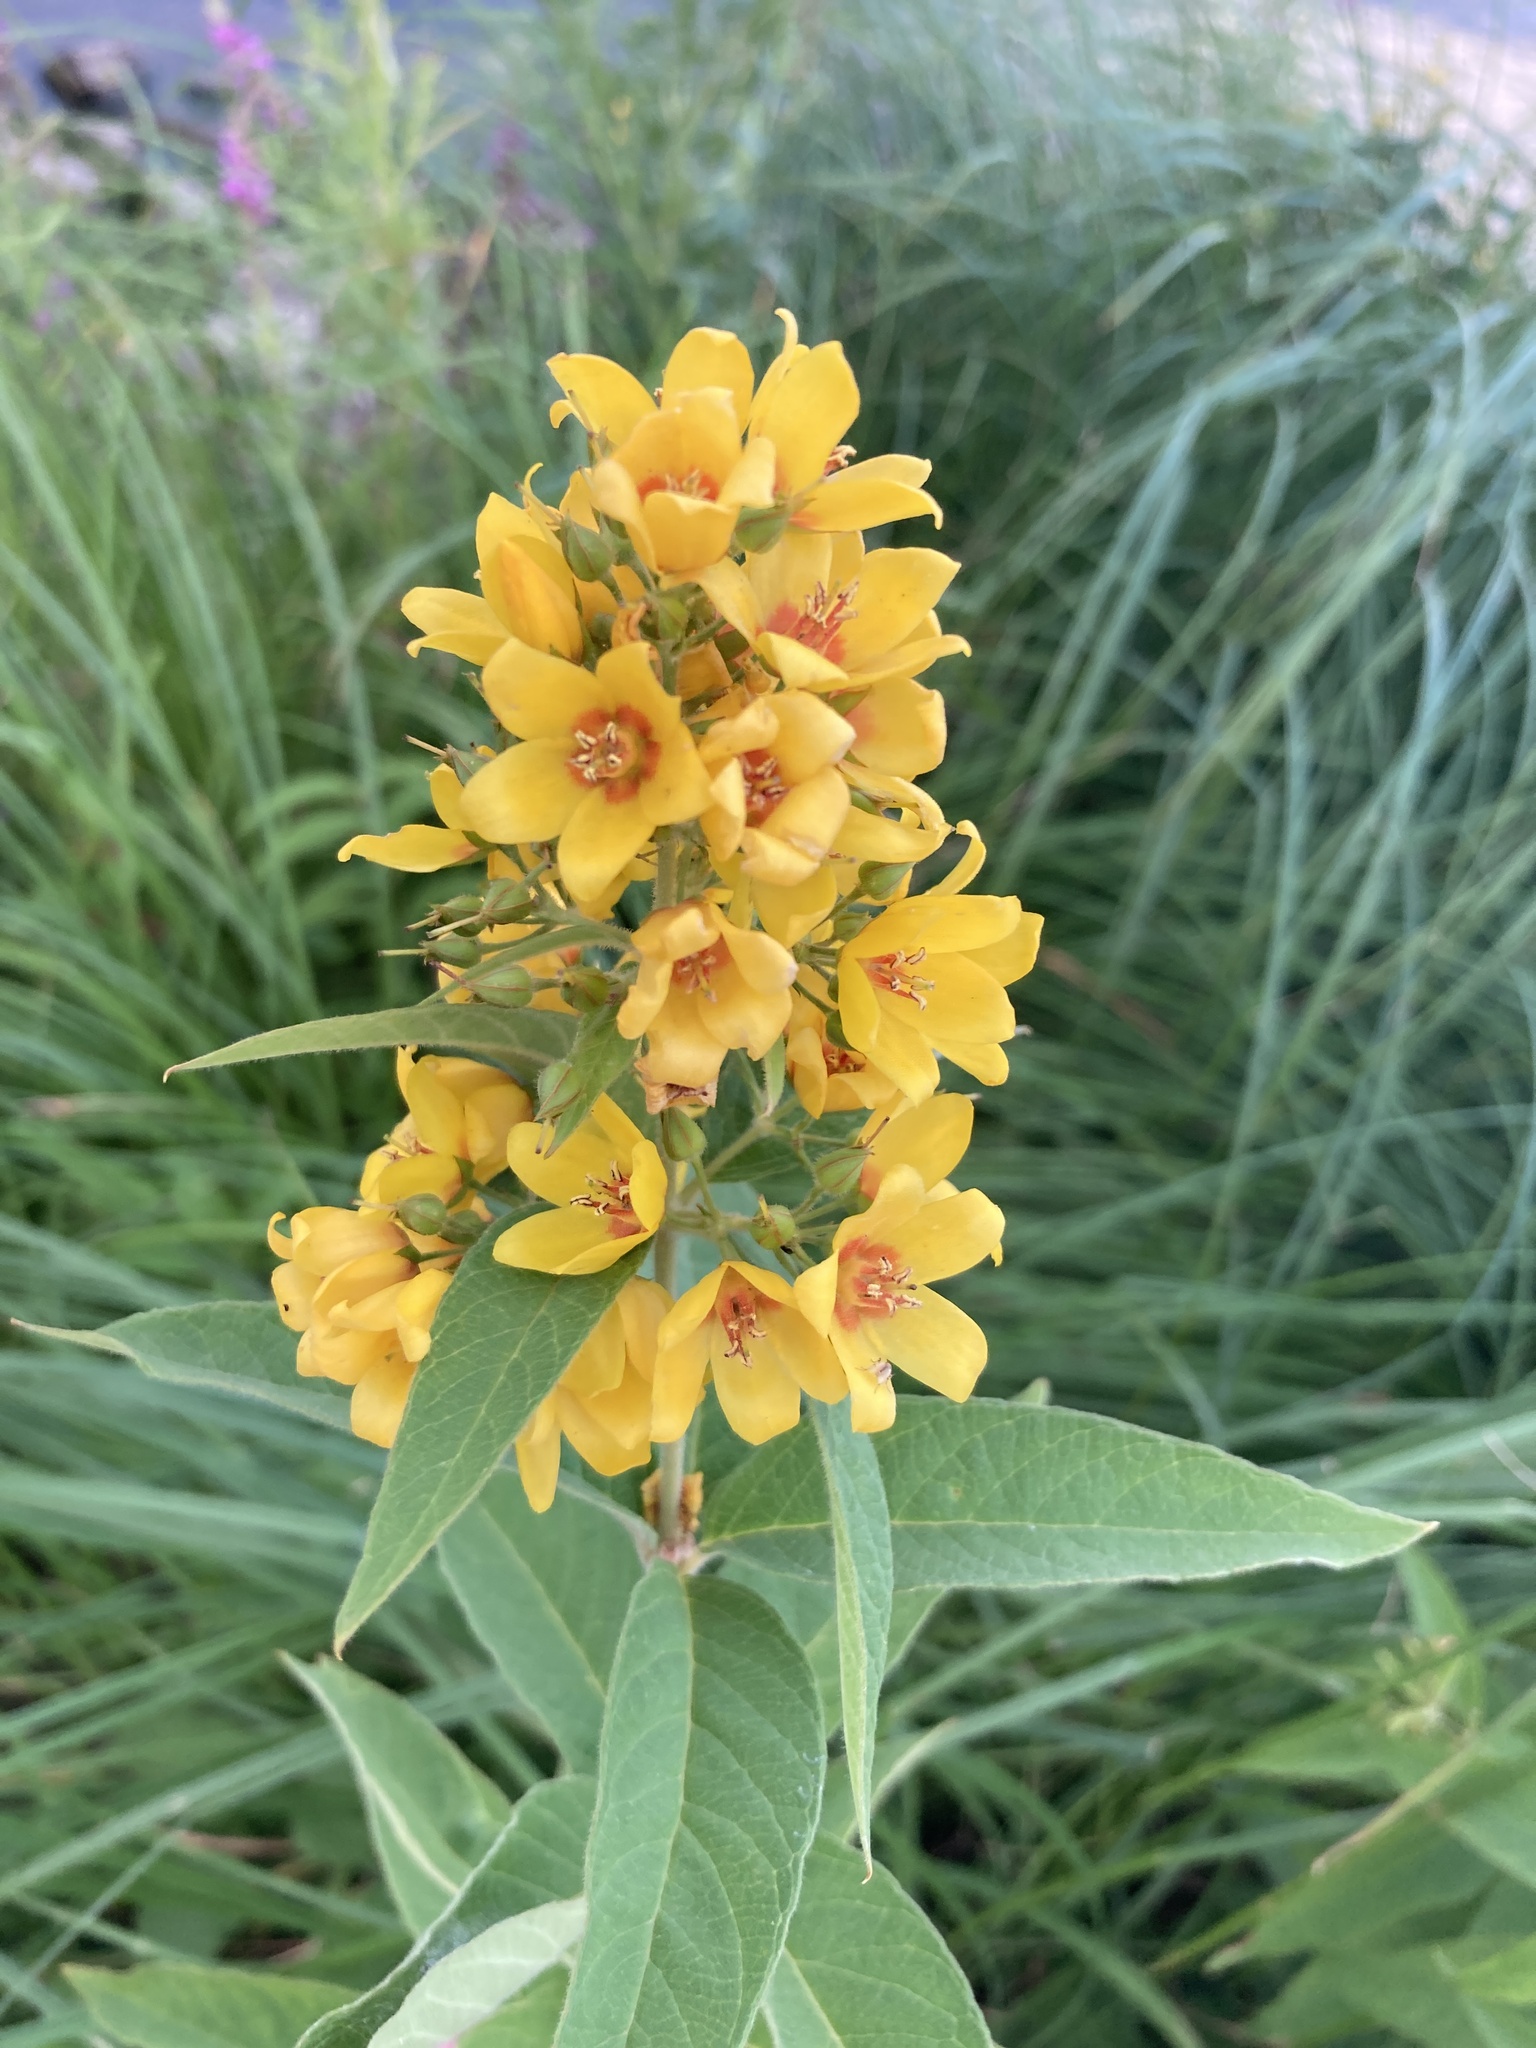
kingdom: Plantae
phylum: Tracheophyta
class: Magnoliopsida
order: Ericales
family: Primulaceae
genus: Lysimachia
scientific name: Lysimachia vulgaris
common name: Yellow loosestrife
